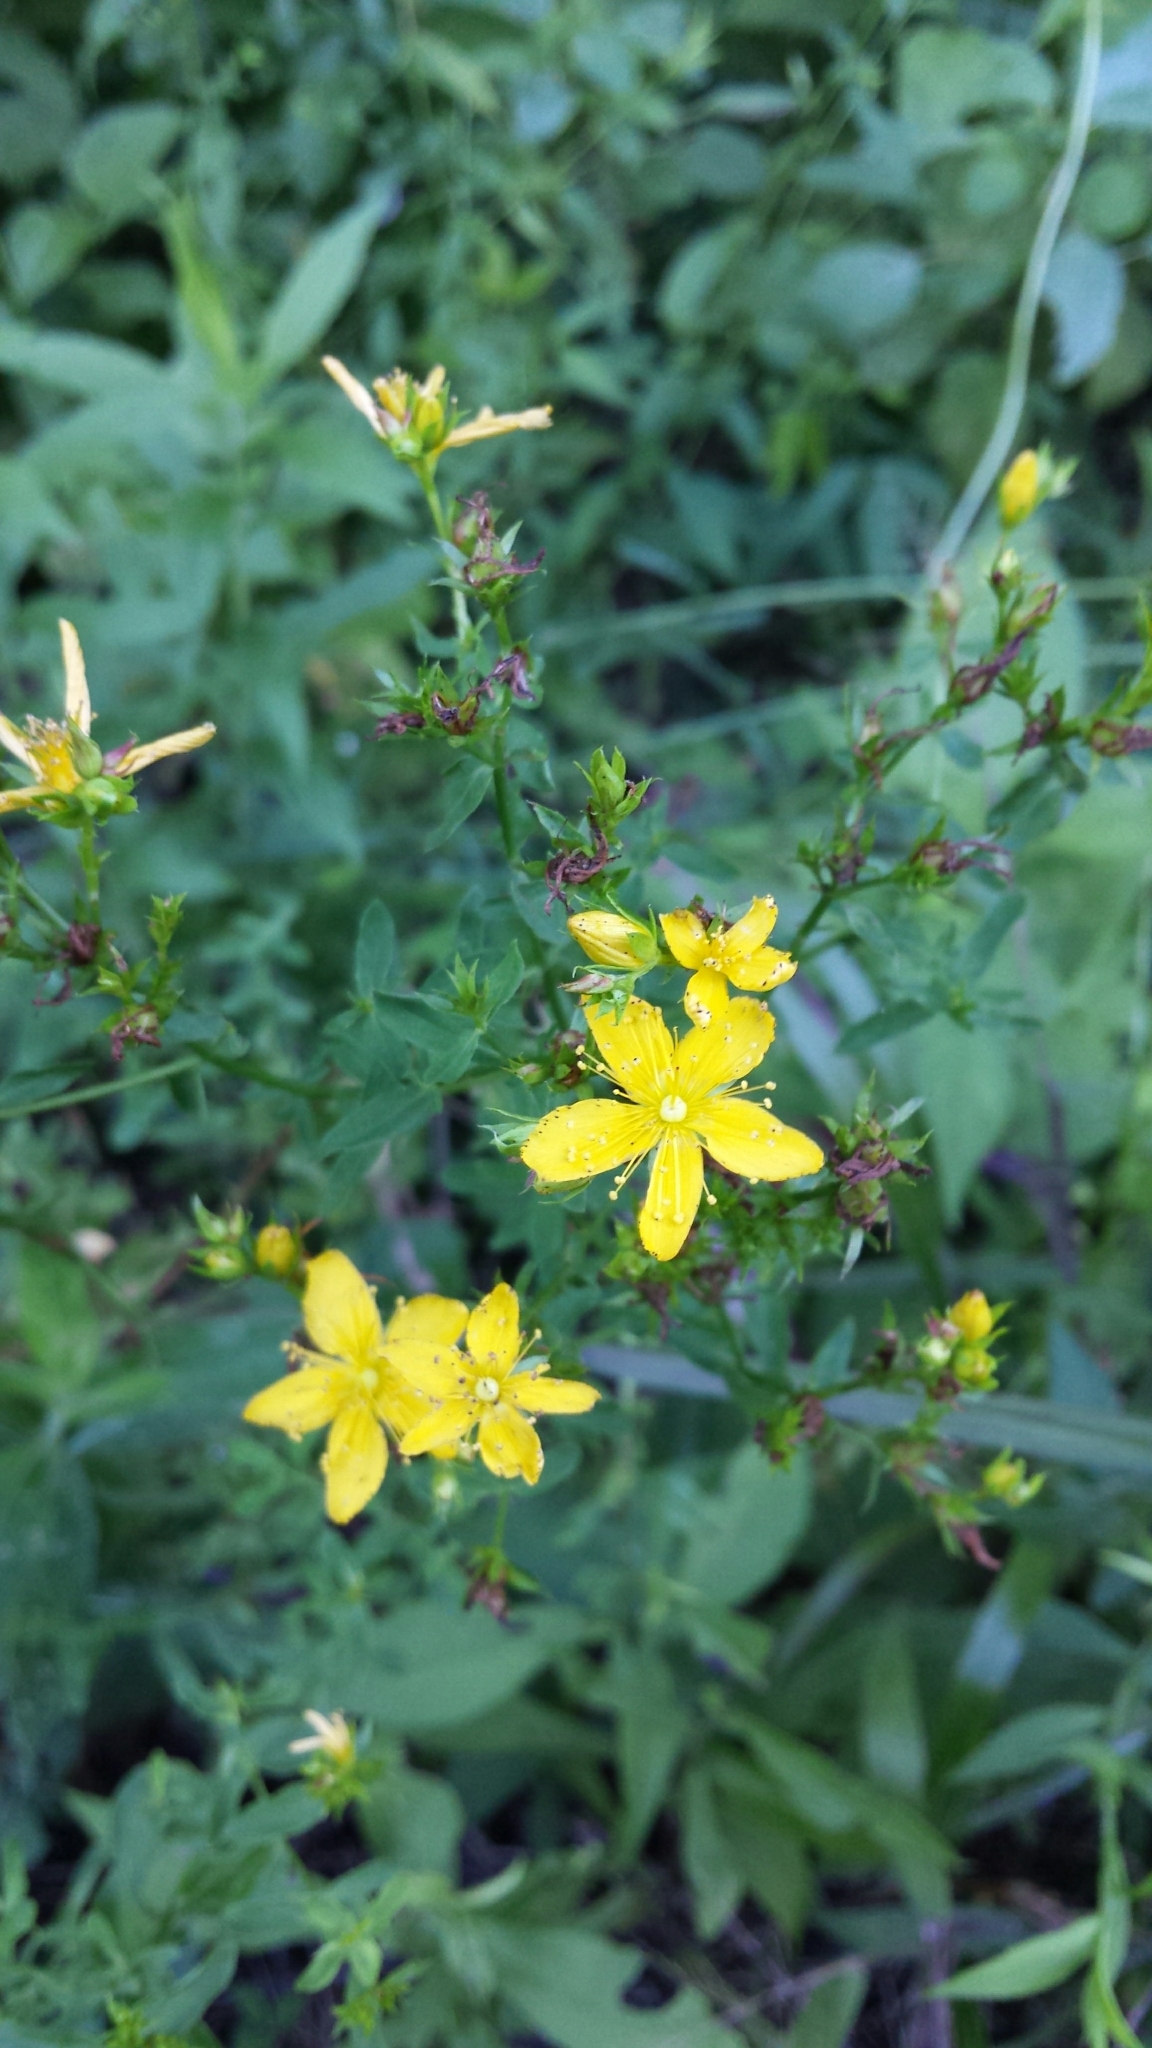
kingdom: Plantae
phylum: Tracheophyta
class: Magnoliopsida
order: Malpighiales
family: Hypericaceae
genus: Hypericum
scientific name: Hypericum perforatum
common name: Common st. johnswort
